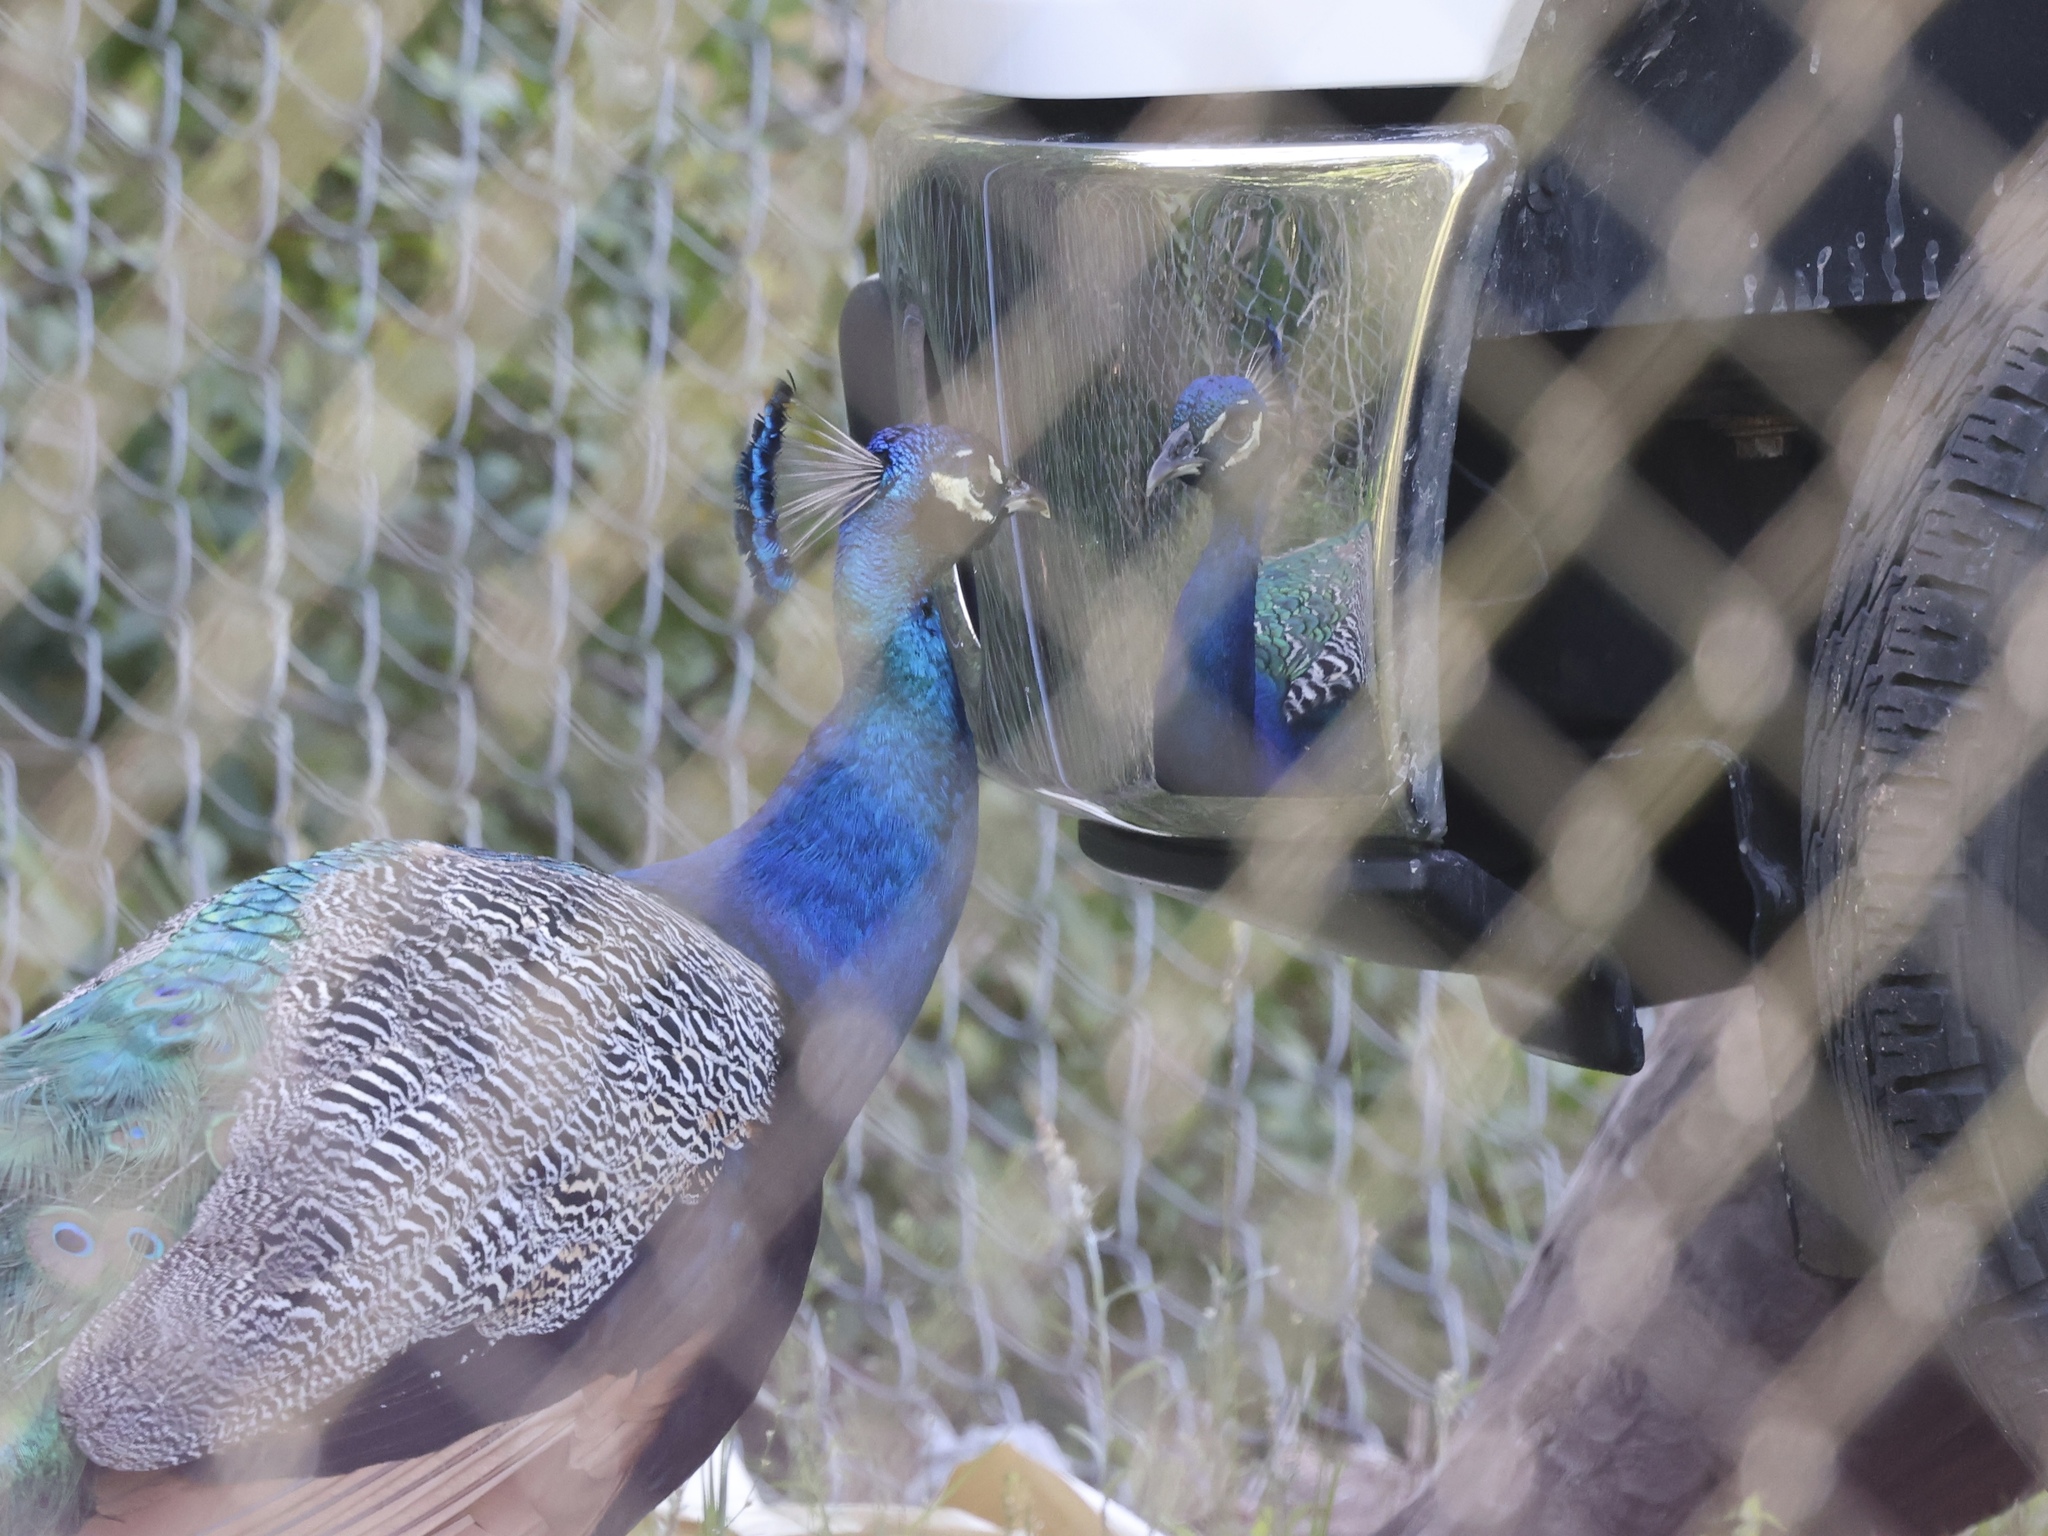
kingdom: Animalia
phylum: Chordata
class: Aves
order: Galliformes
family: Phasianidae
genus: Pavo
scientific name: Pavo cristatus
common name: Indian peafowl
